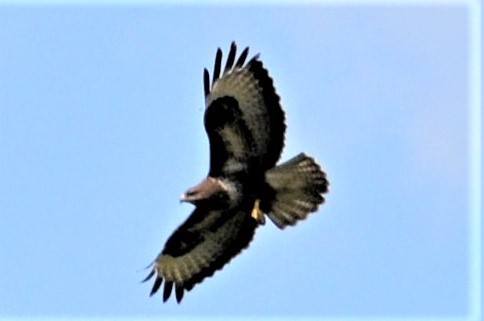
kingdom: Animalia
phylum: Chordata
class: Aves
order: Accipitriformes
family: Accipitridae
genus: Buteo
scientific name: Buteo buteo
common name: Common buzzard
